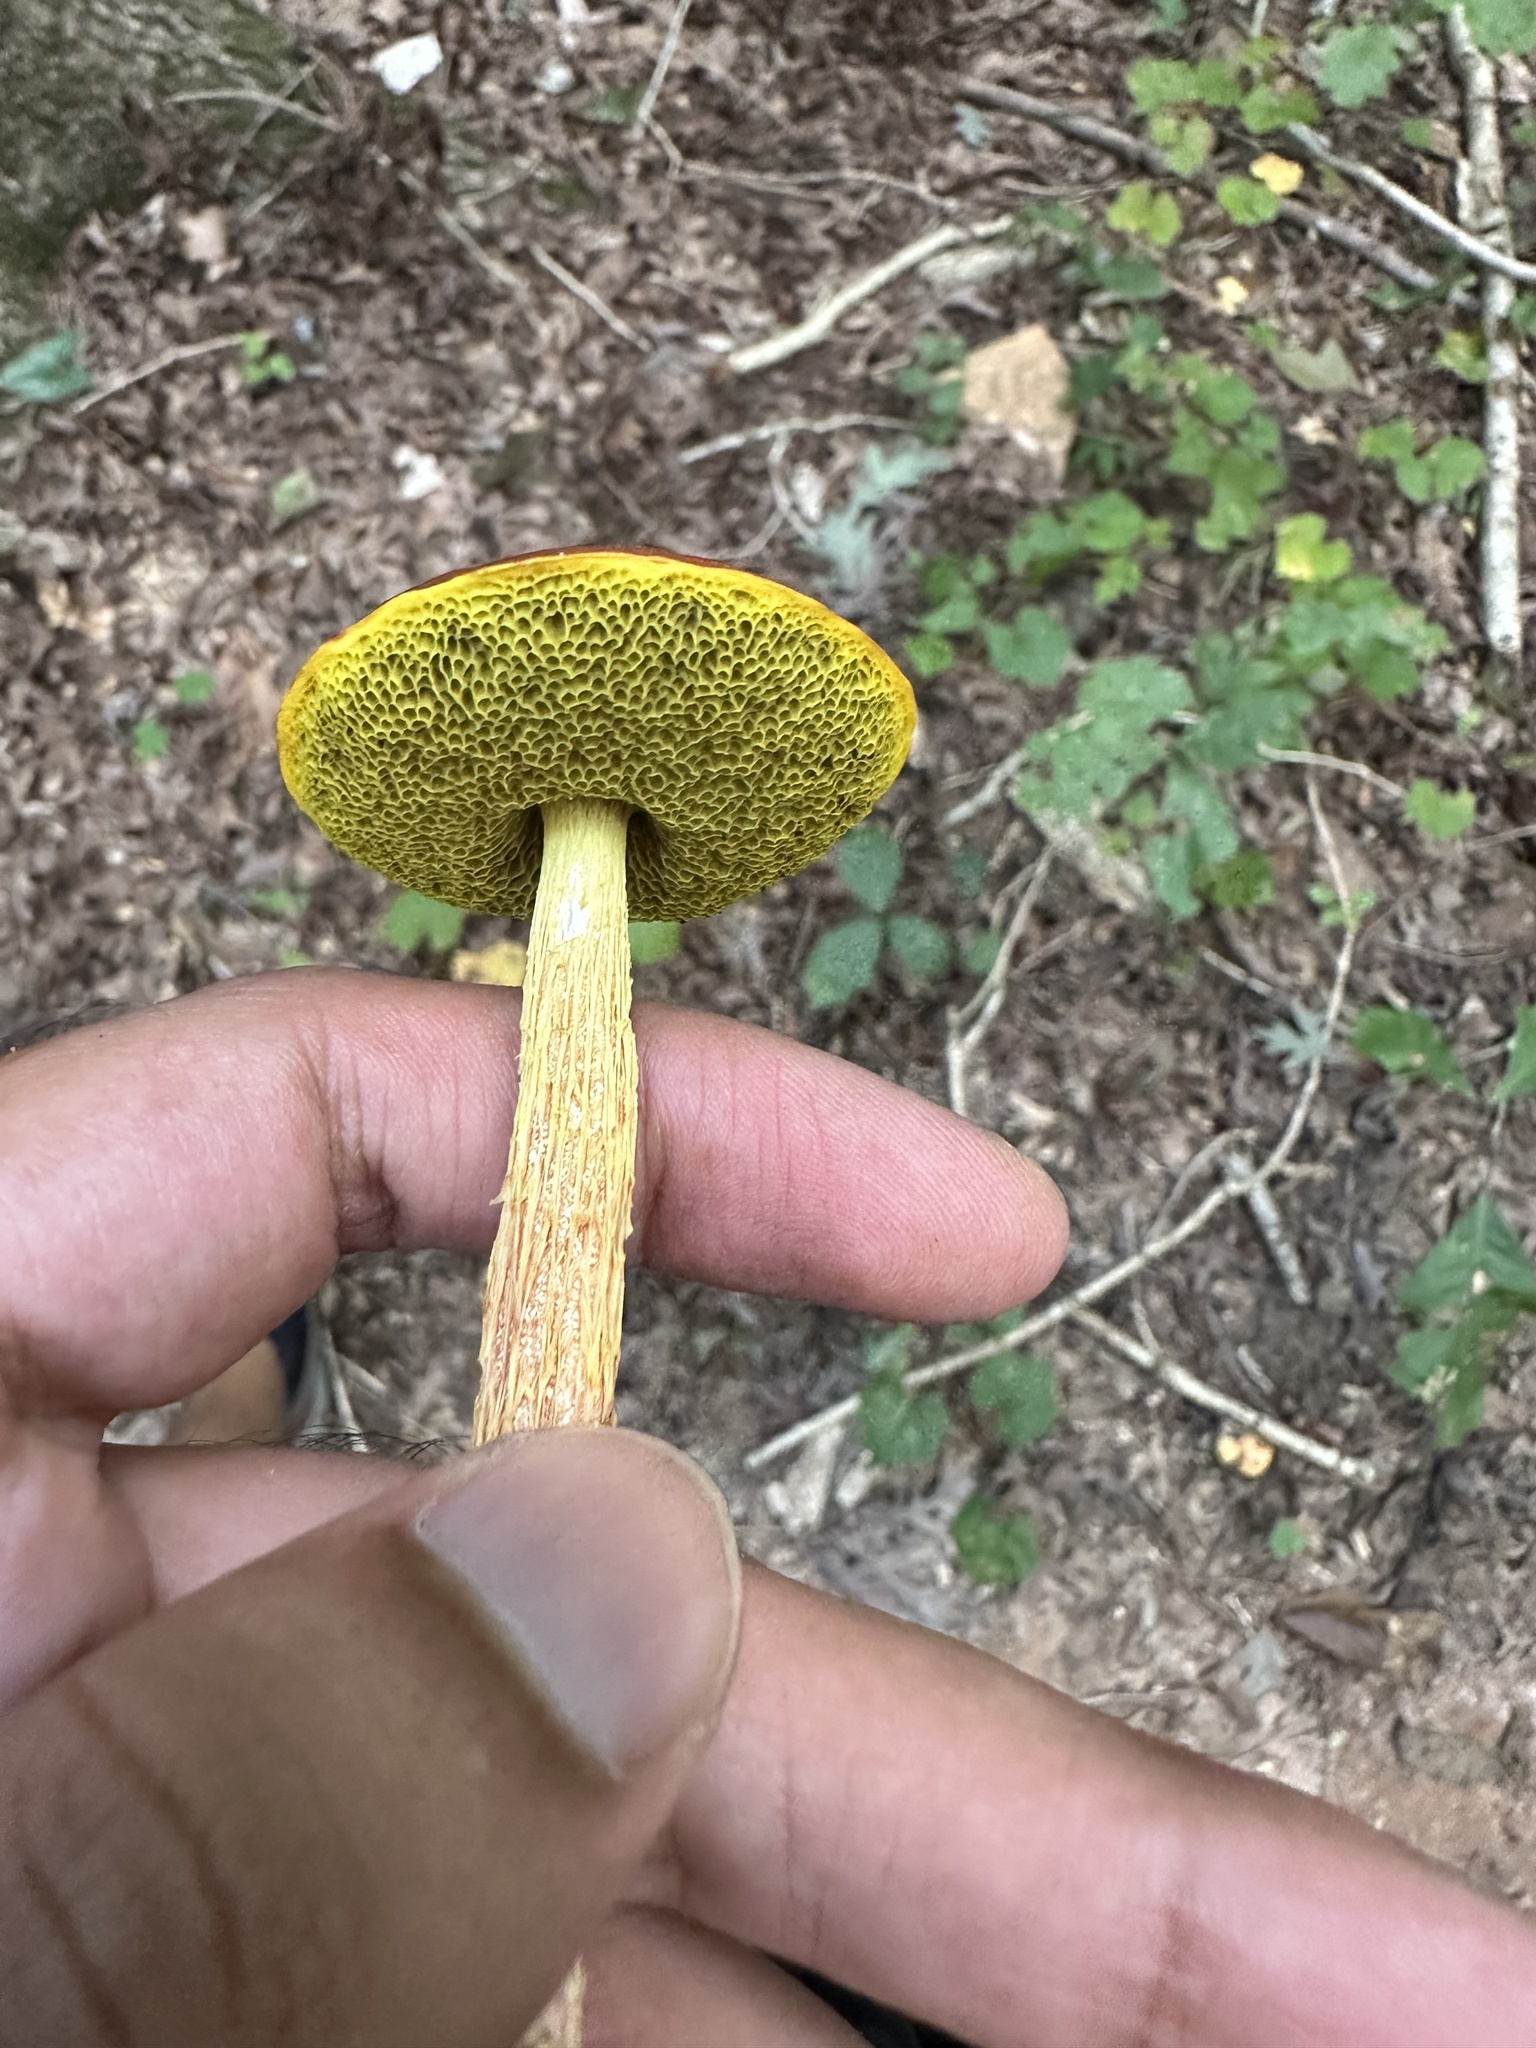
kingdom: Fungi
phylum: Basidiomycota
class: Agaricomycetes
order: Boletales
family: Boletaceae
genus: Aureoboletus
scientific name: Aureoboletus betula
